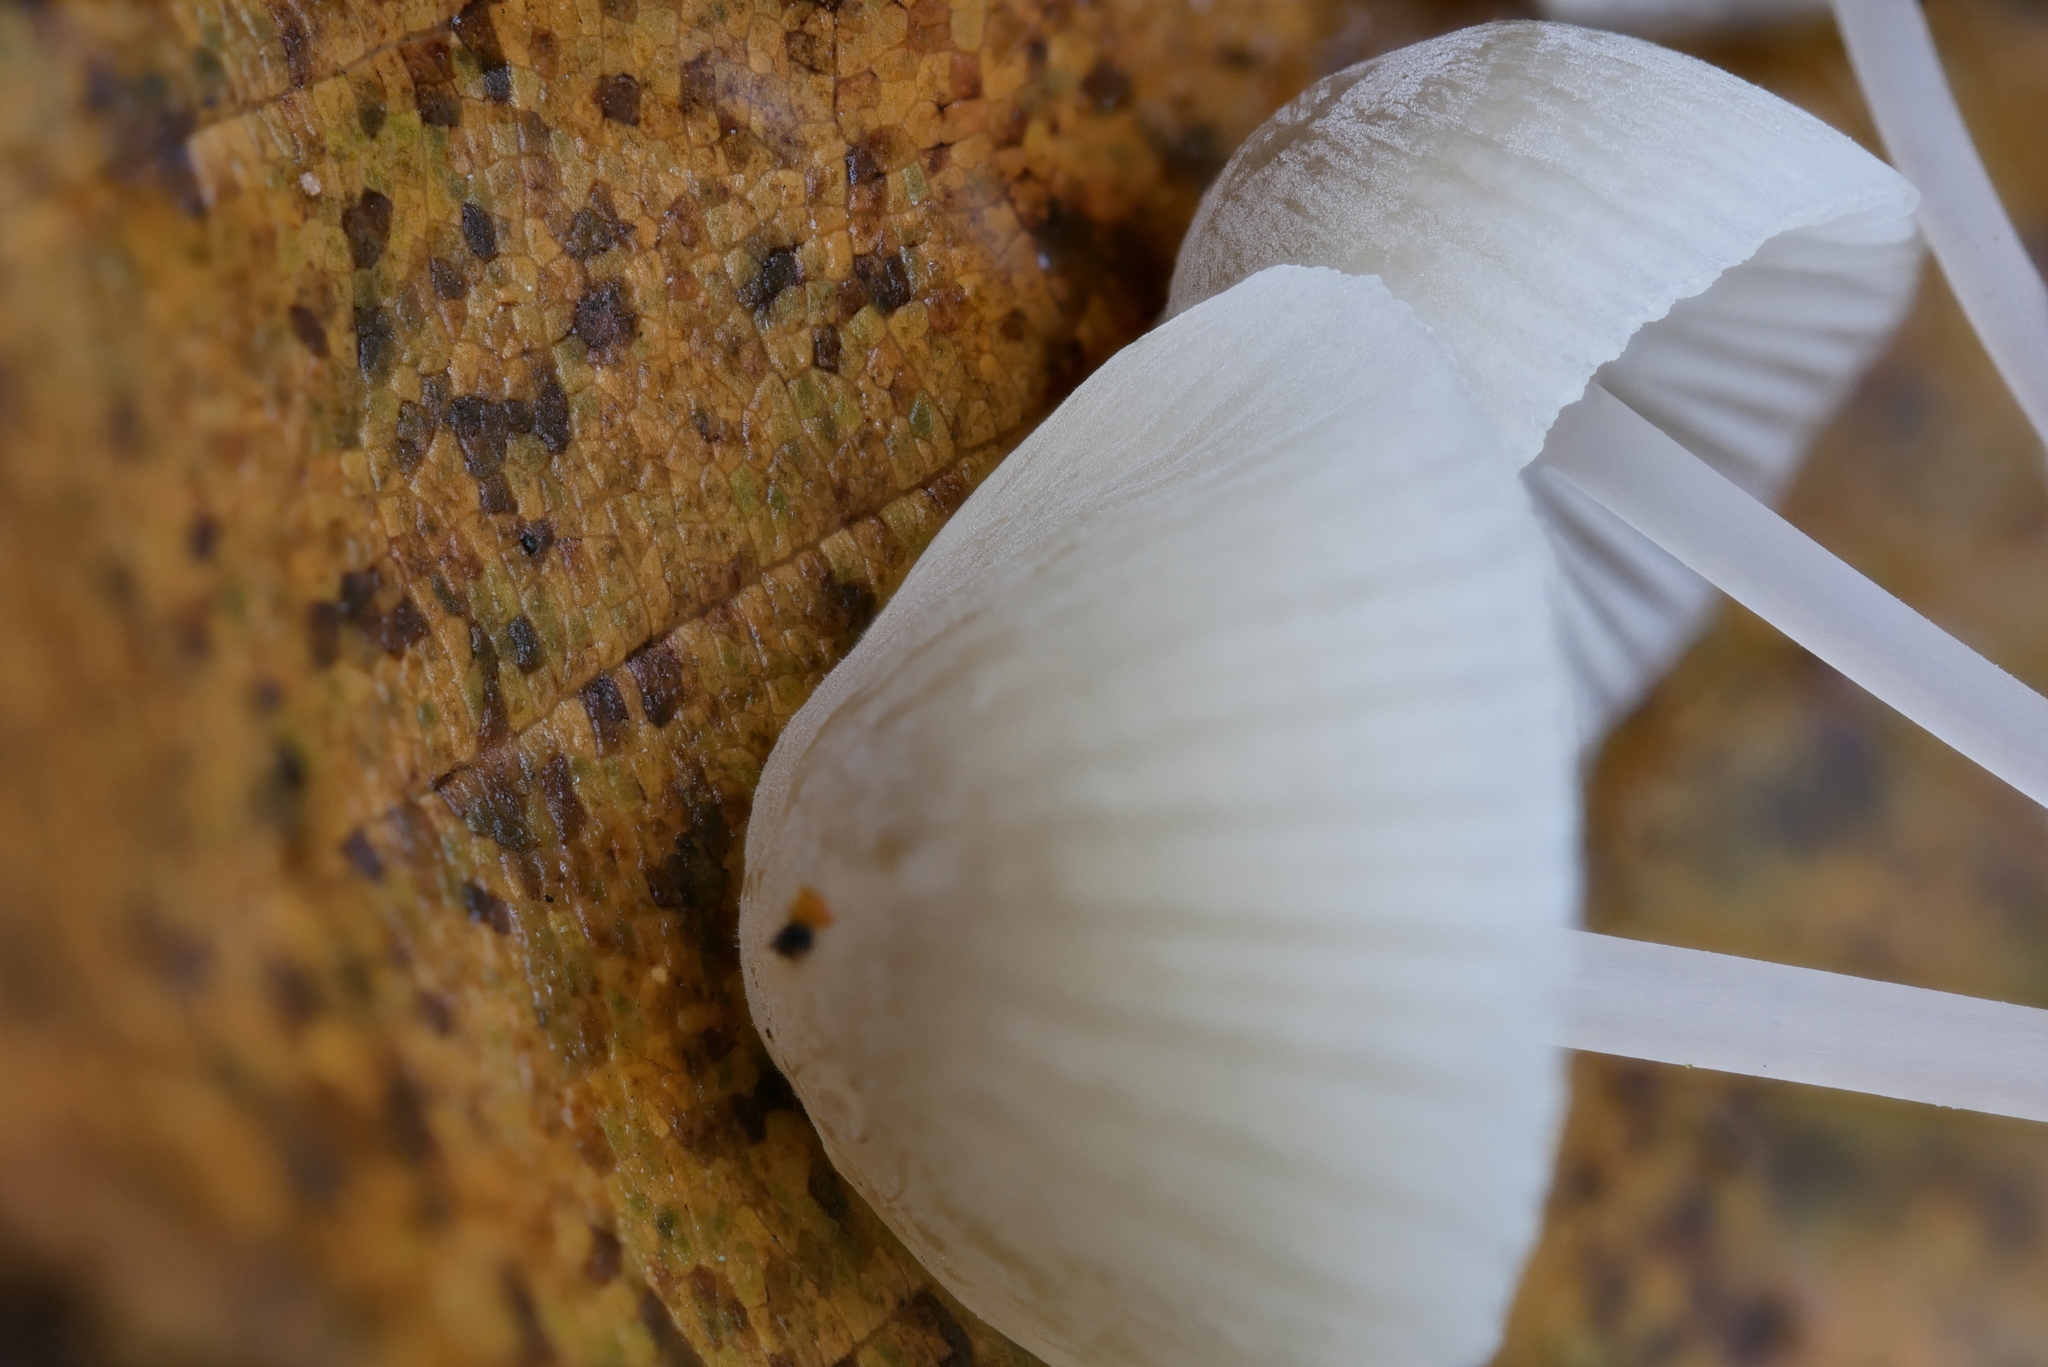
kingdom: Fungi
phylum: Basidiomycota
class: Agaricomycetes
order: Agaricales
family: Mycenaceae
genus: Mycena
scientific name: Mycena metata
